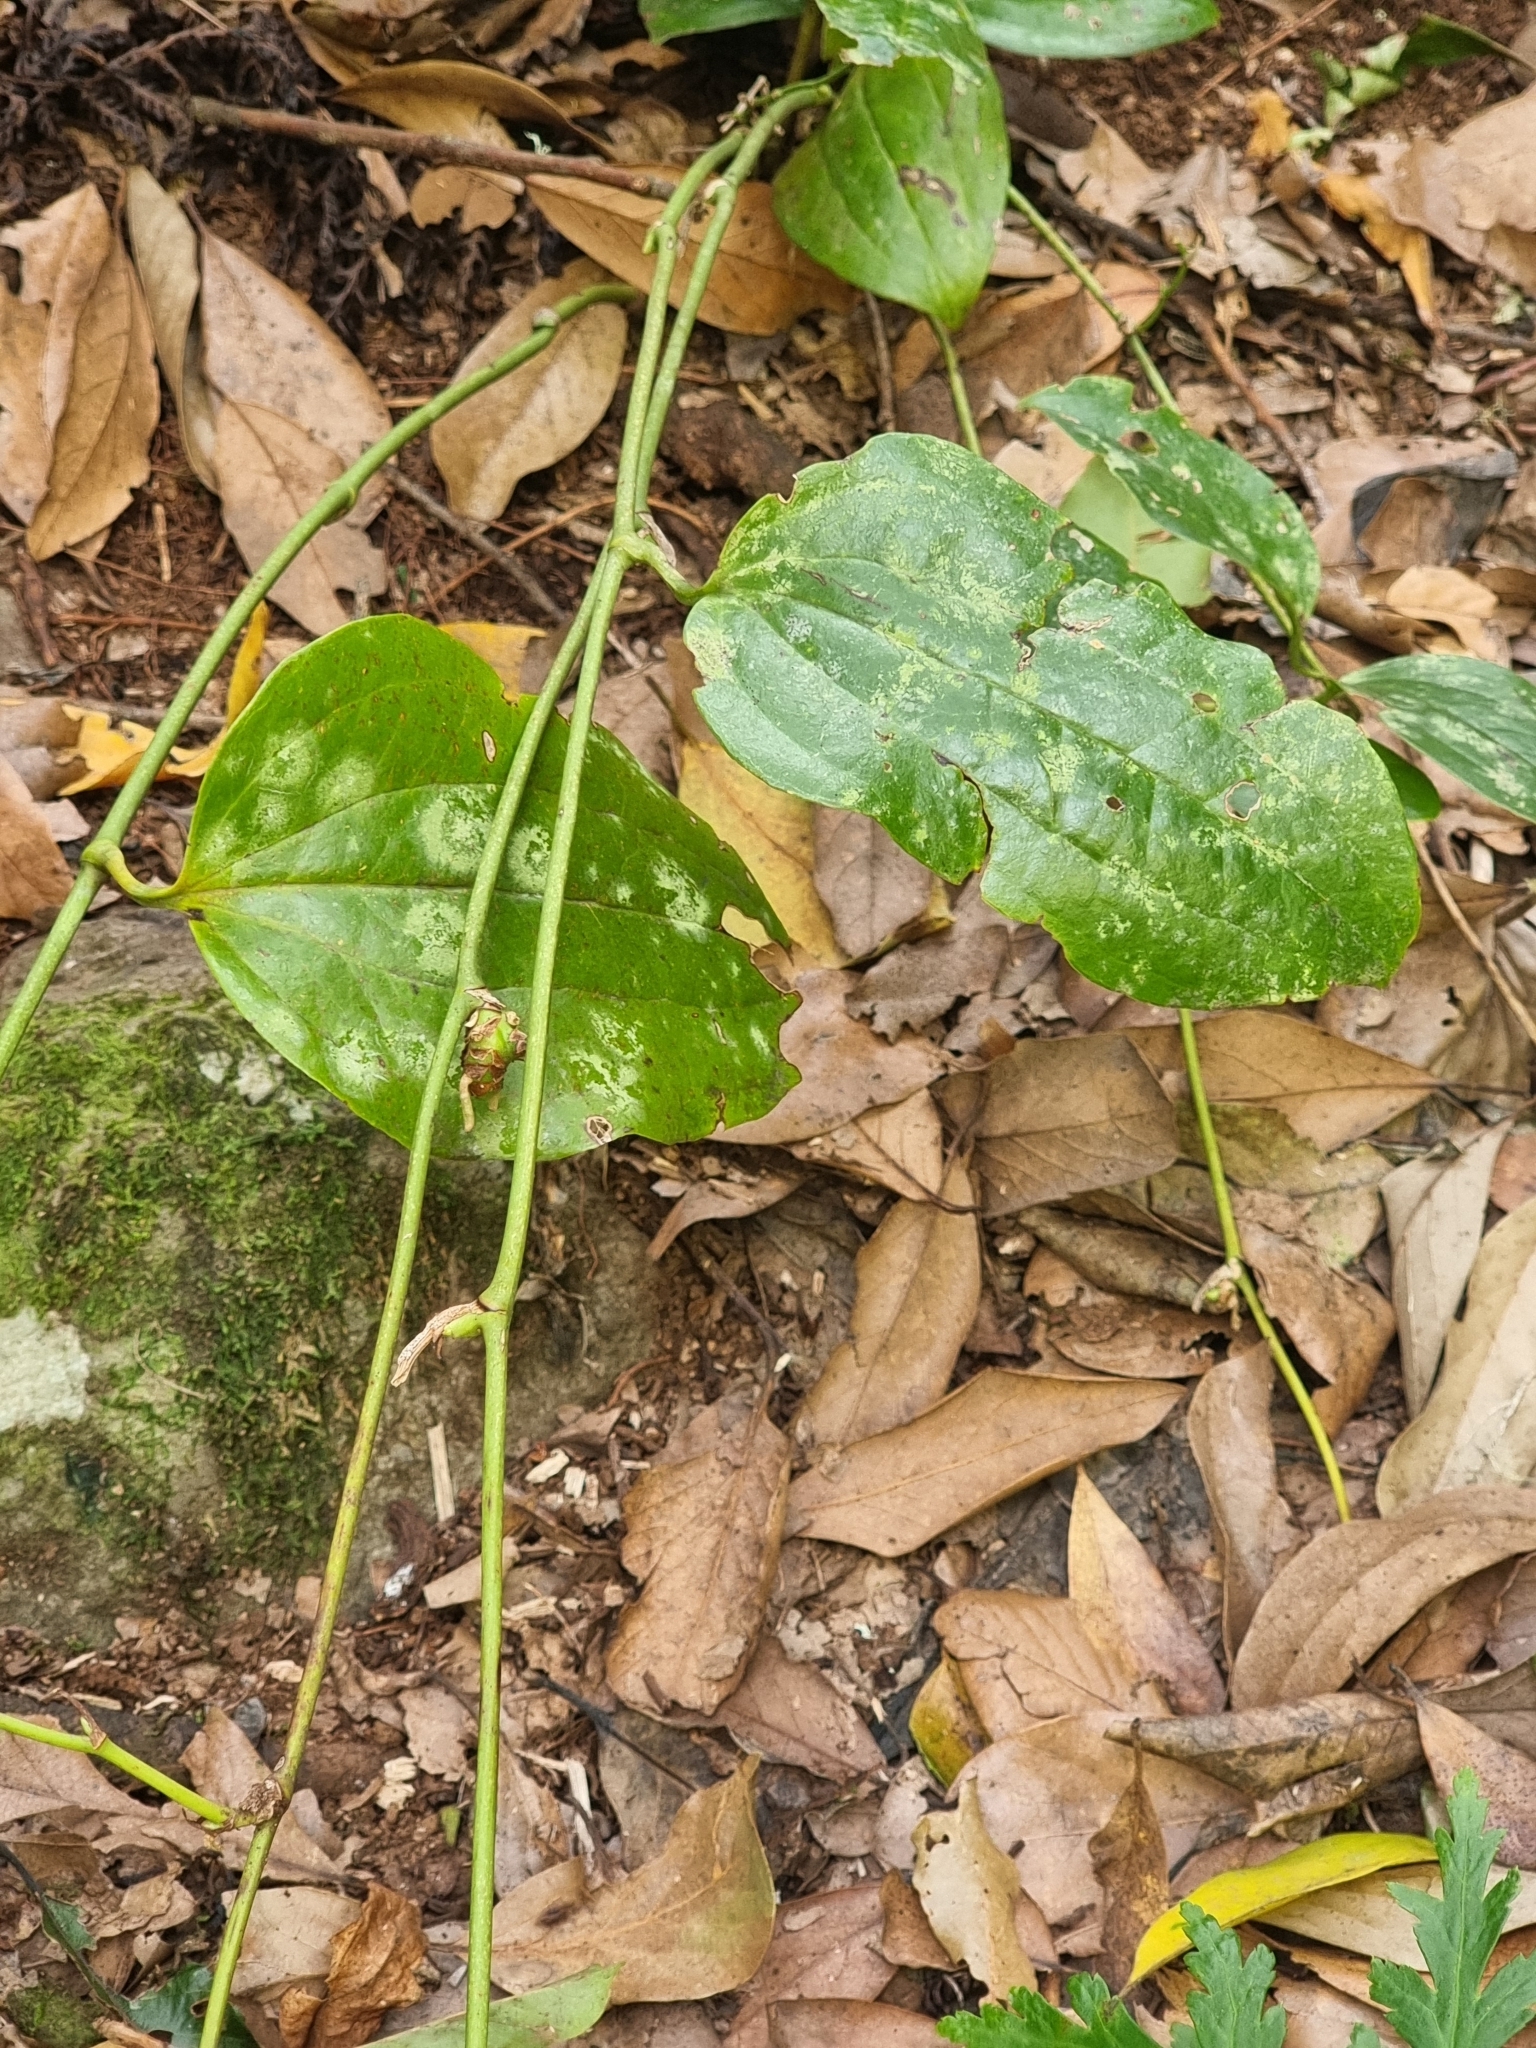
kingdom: Plantae
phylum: Tracheophyta
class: Liliopsida
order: Liliales
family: Smilacaceae
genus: Smilax
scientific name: Smilax canariensis
